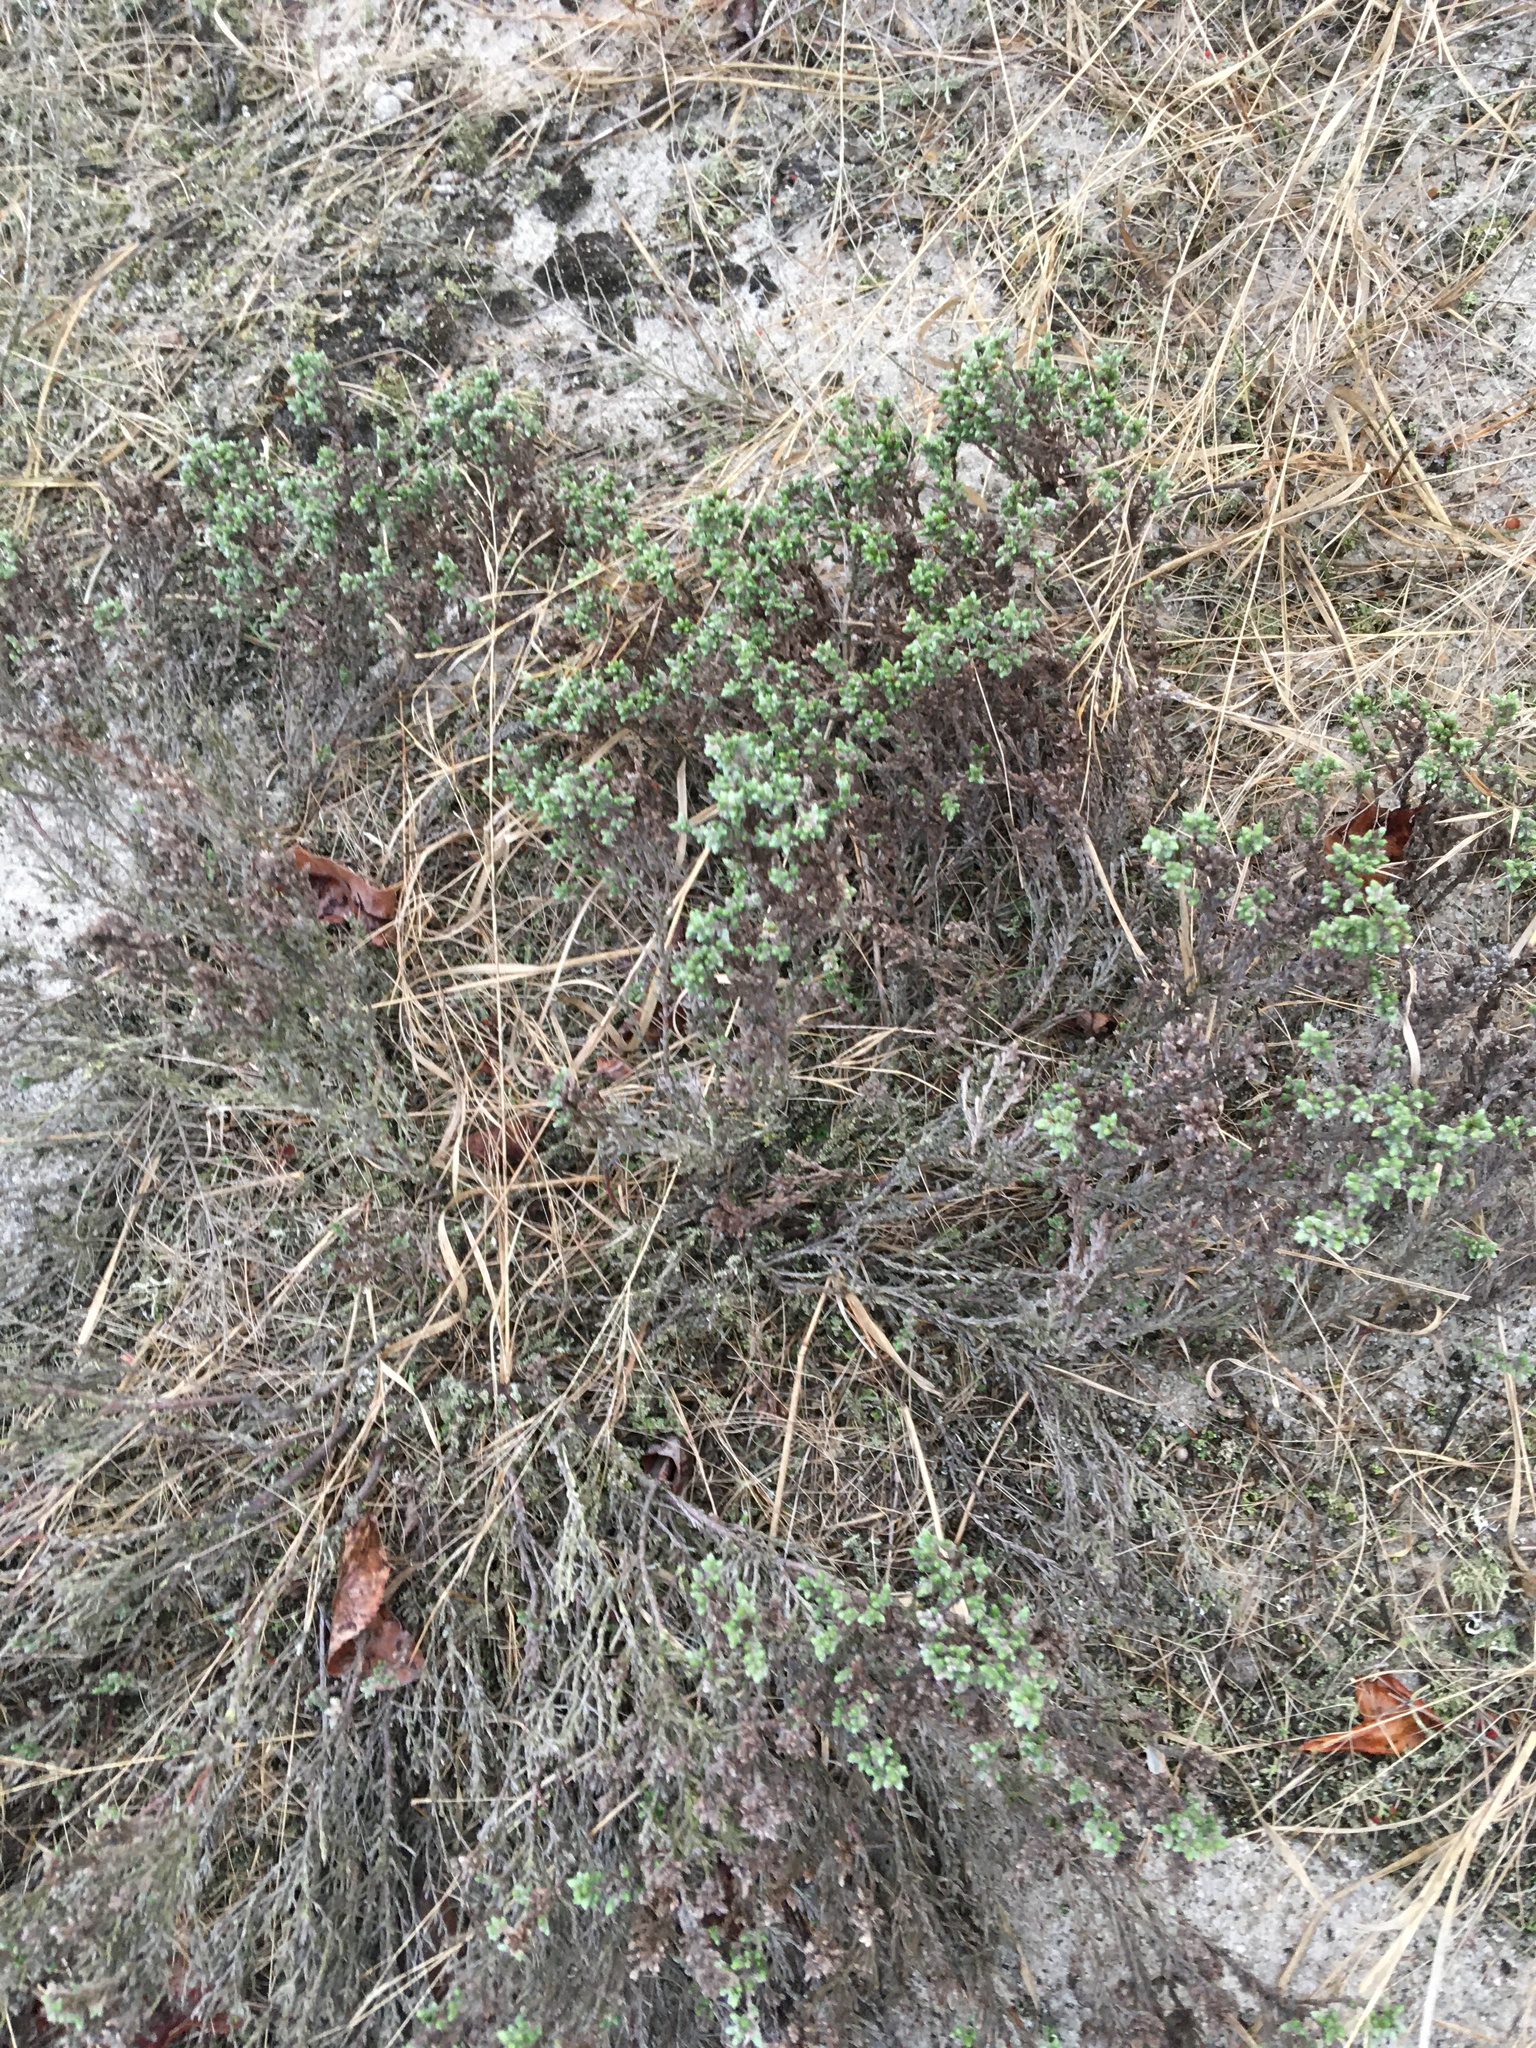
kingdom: Plantae
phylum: Tracheophyta
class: Magnoliopsida
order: Malvales
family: Cistaceae
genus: Hudsonia
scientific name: Hudsonia tomentosa
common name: Beach-heath
